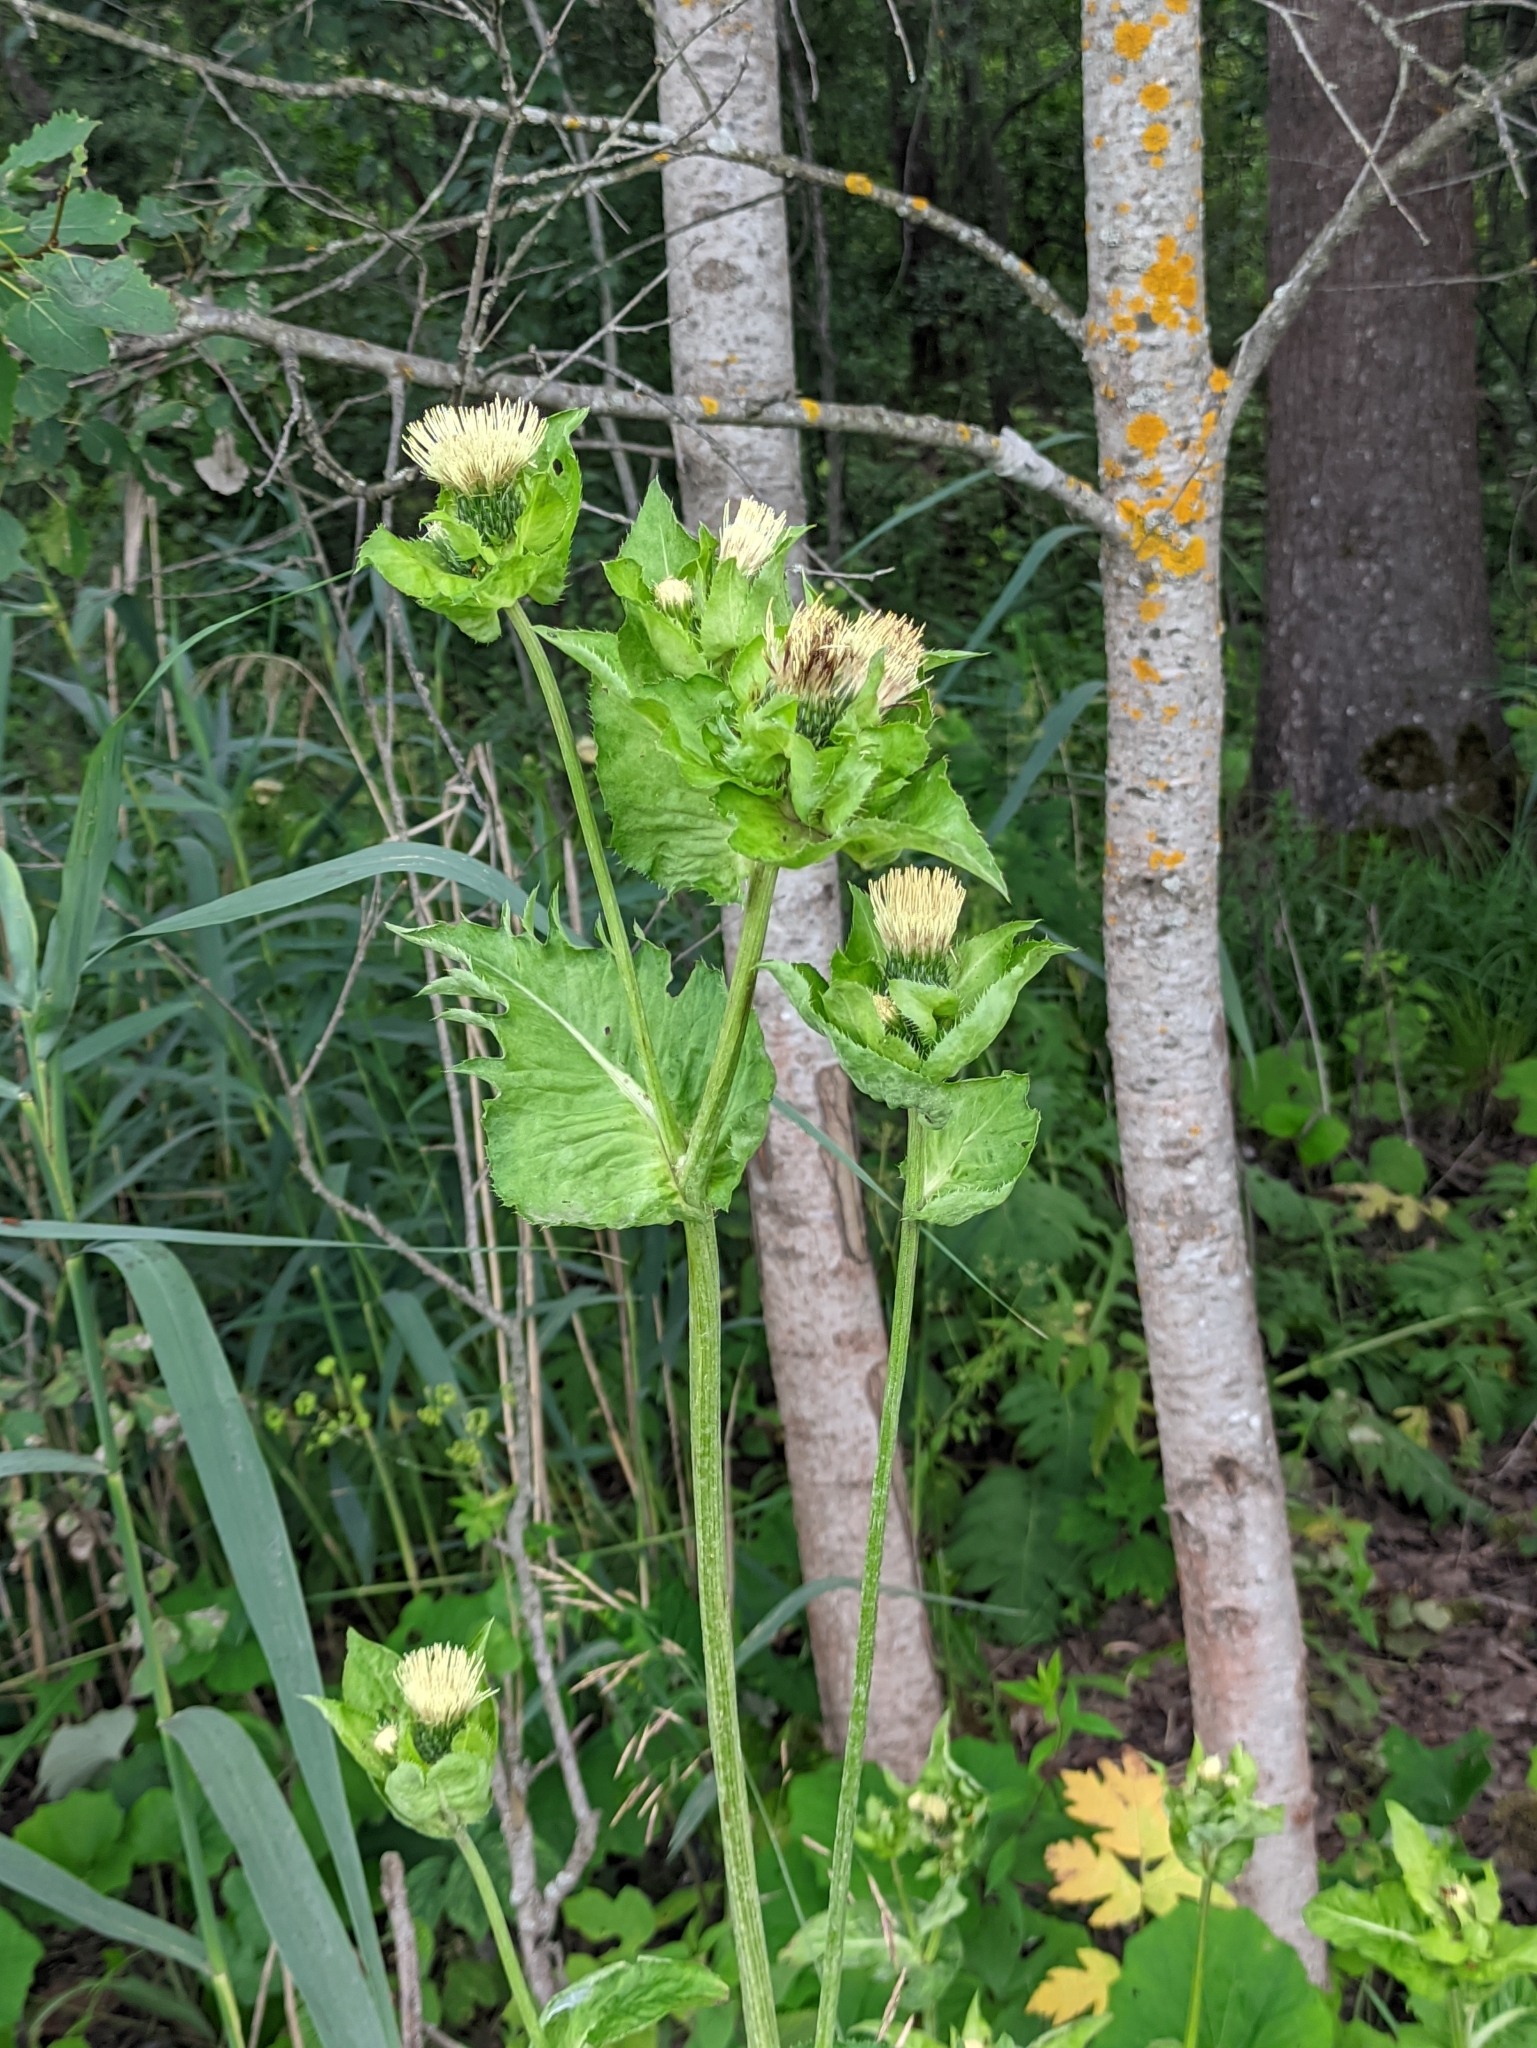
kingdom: Plantae
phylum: Tracheophyta
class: Magnoliopsida
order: Asterales
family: Asteraceae
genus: Cirsium
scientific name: Cirsium oleraceum
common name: Cabbage thistle
